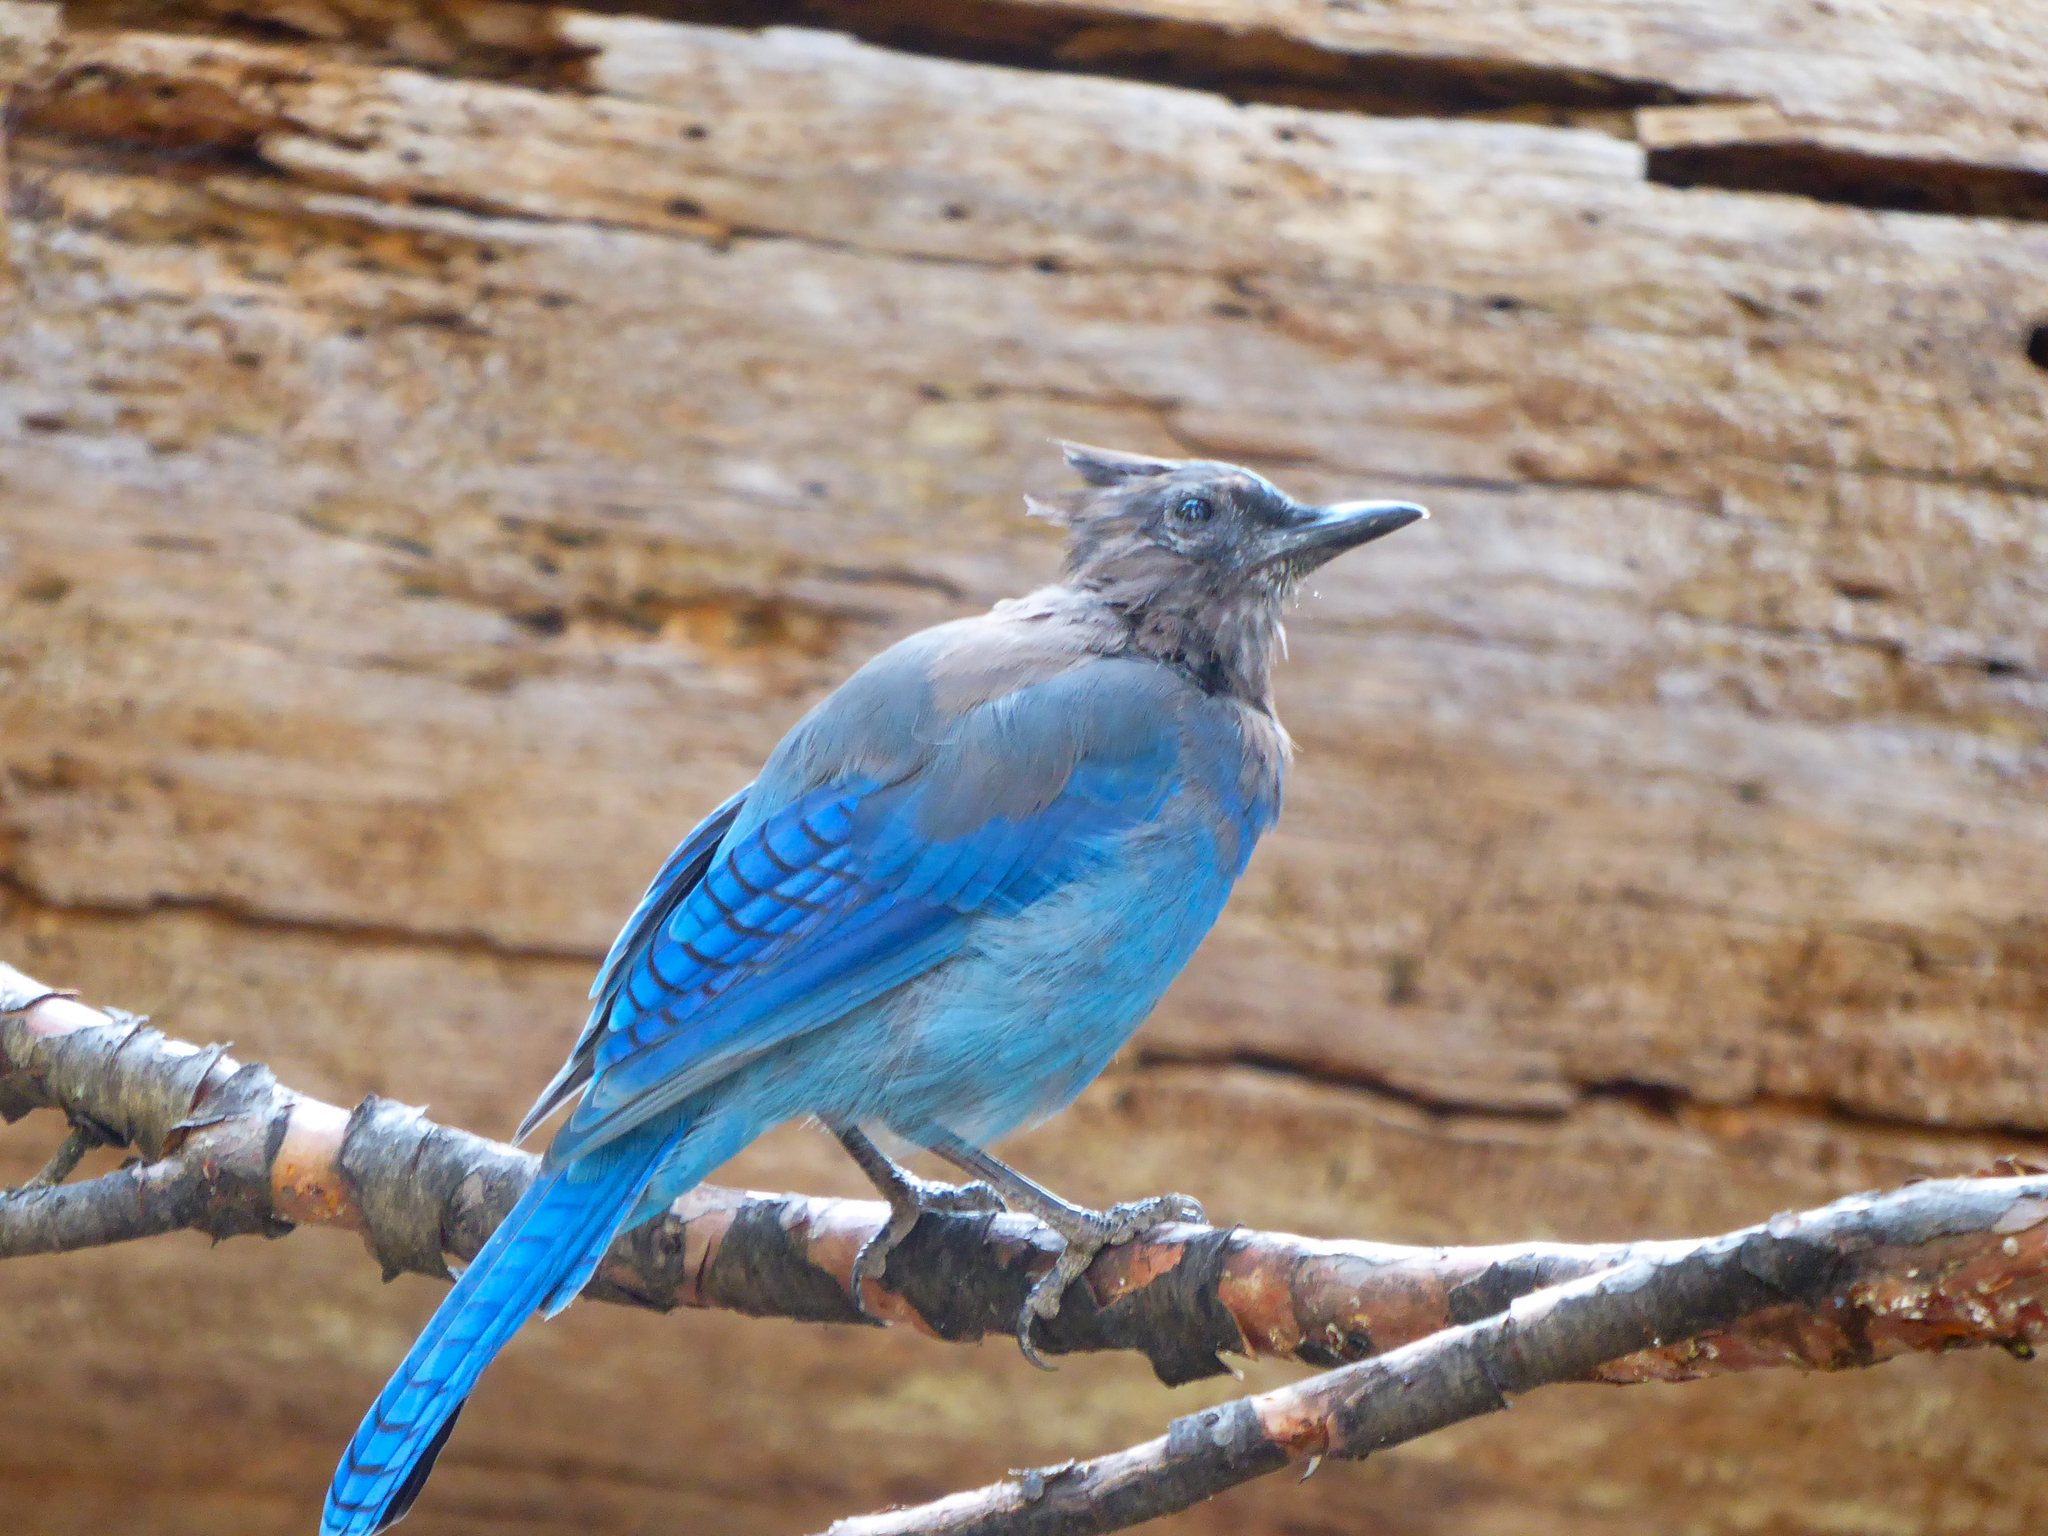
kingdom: Animalia
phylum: Chordata
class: Aves
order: Passeriformes
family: Corvidae
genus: Cyanocitta
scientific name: Cyanocitta stelleri
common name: Steller's jay
